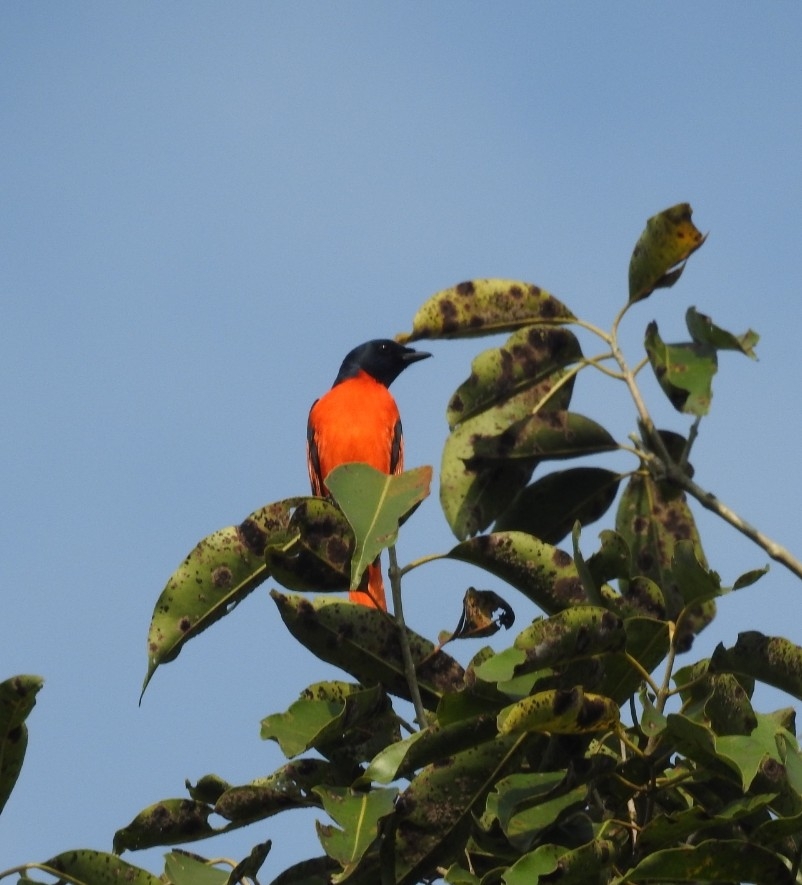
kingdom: Animalia
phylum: Chordata
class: Aves
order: Passeriformes
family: Campephagidae
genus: Pericrocotus
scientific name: Pericrocotus speciosus
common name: Scarlet minivet
